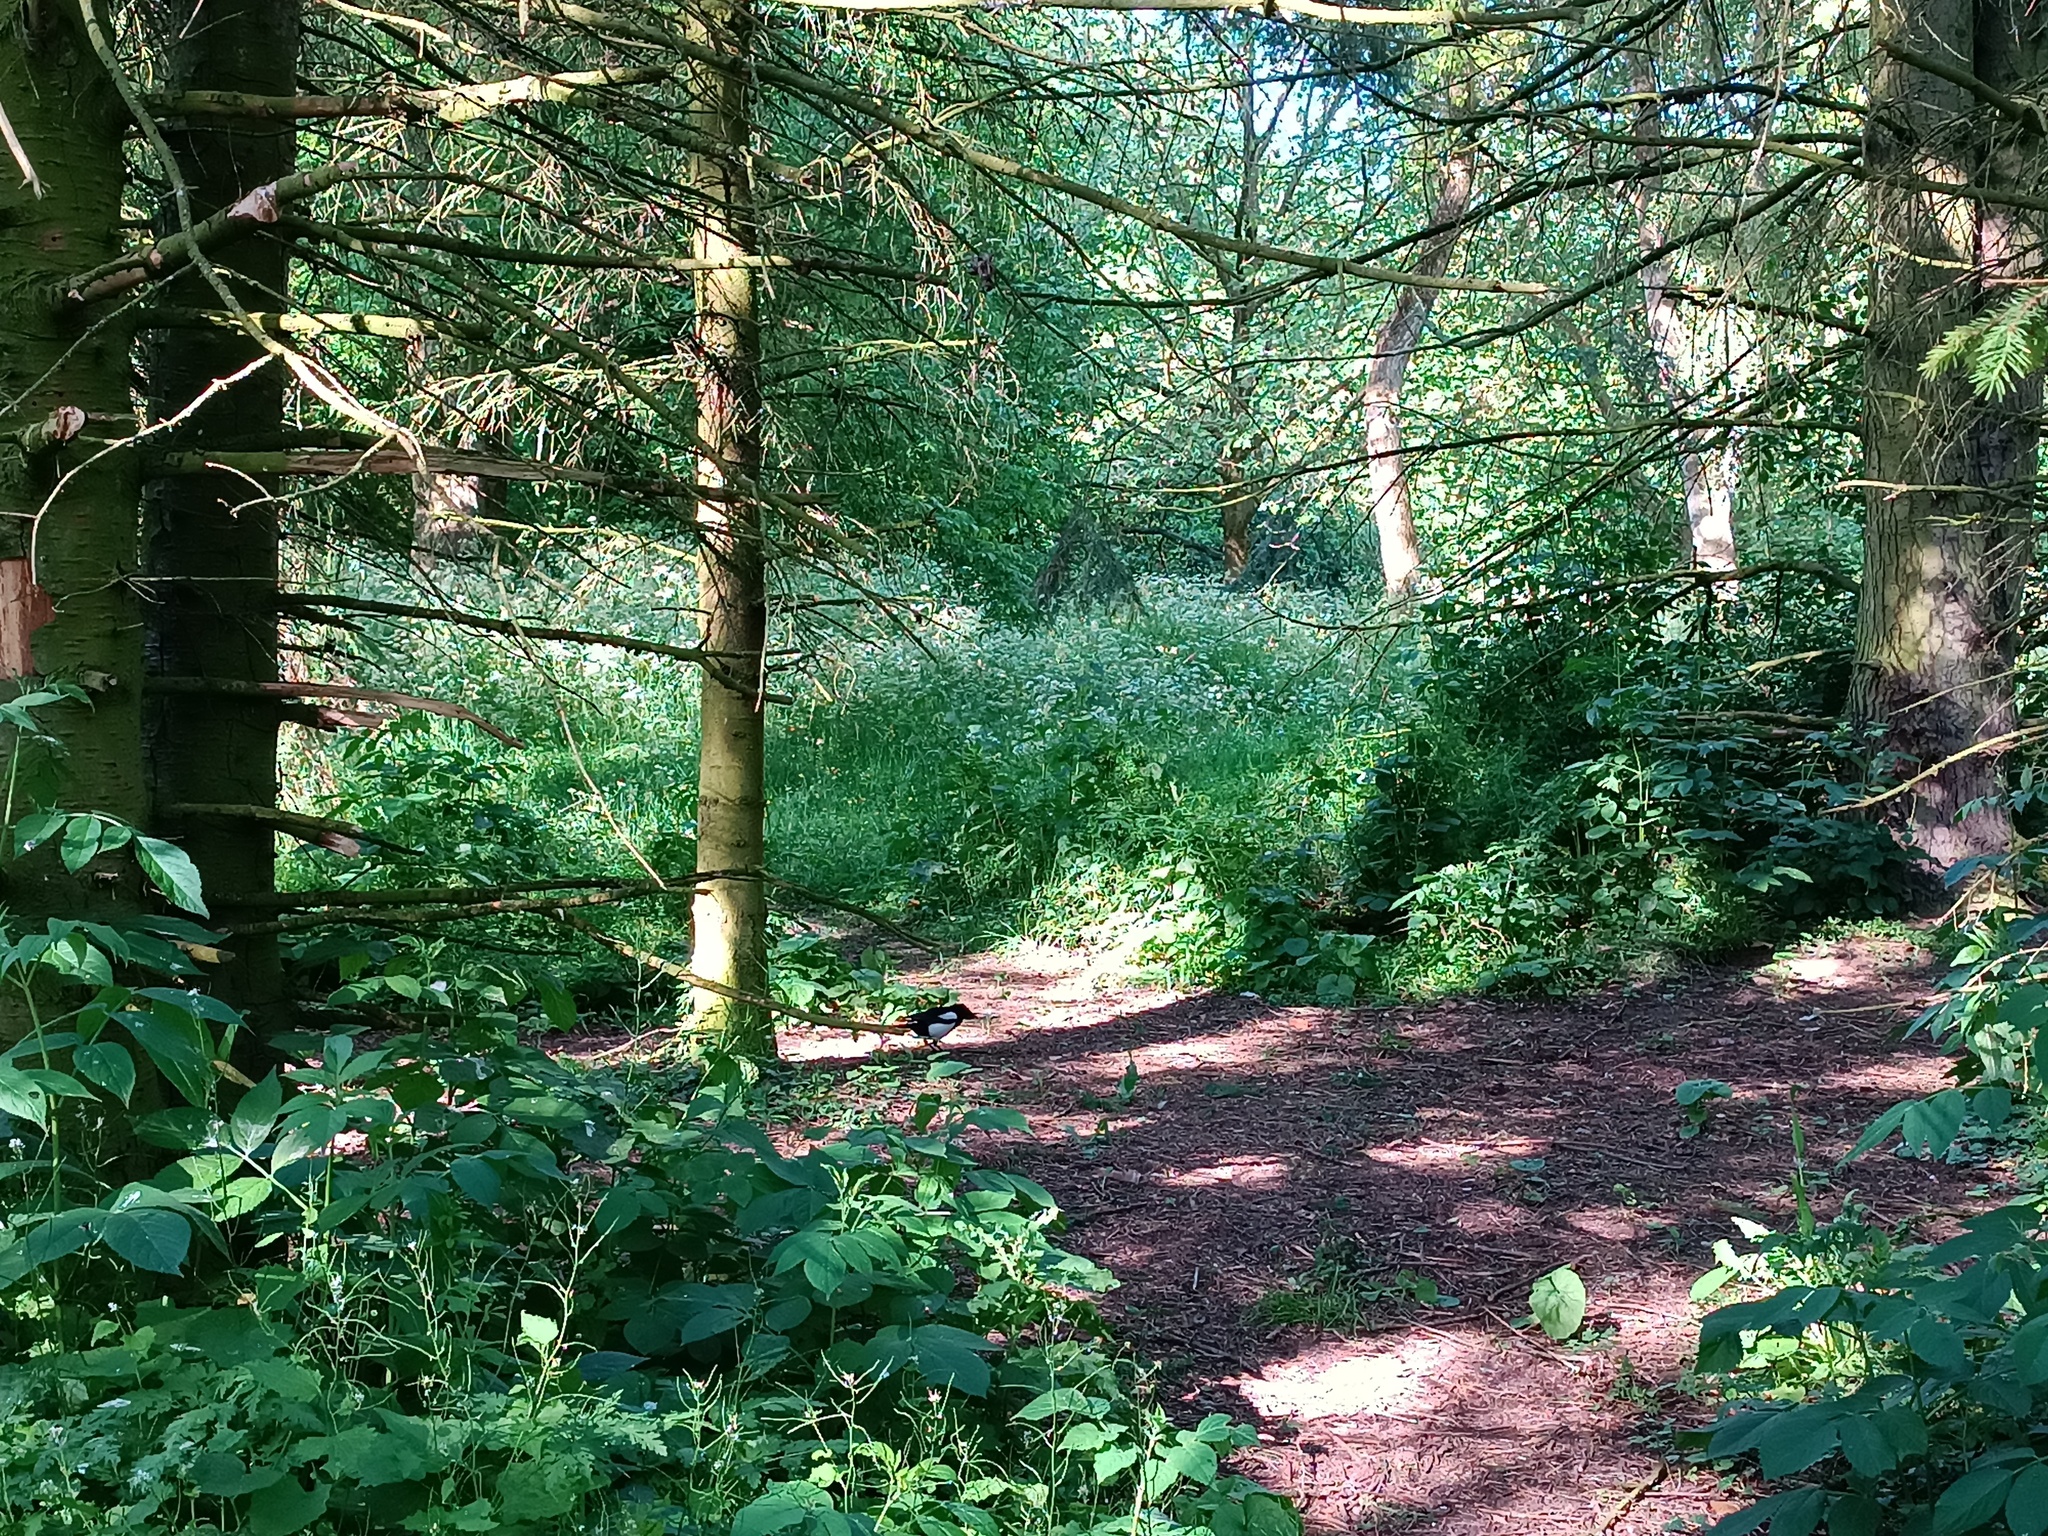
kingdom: Animalia
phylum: Chordata
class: Aves
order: Passeriformes
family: Corvidae
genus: Pica
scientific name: Pica pica
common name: Eurasian magpie
